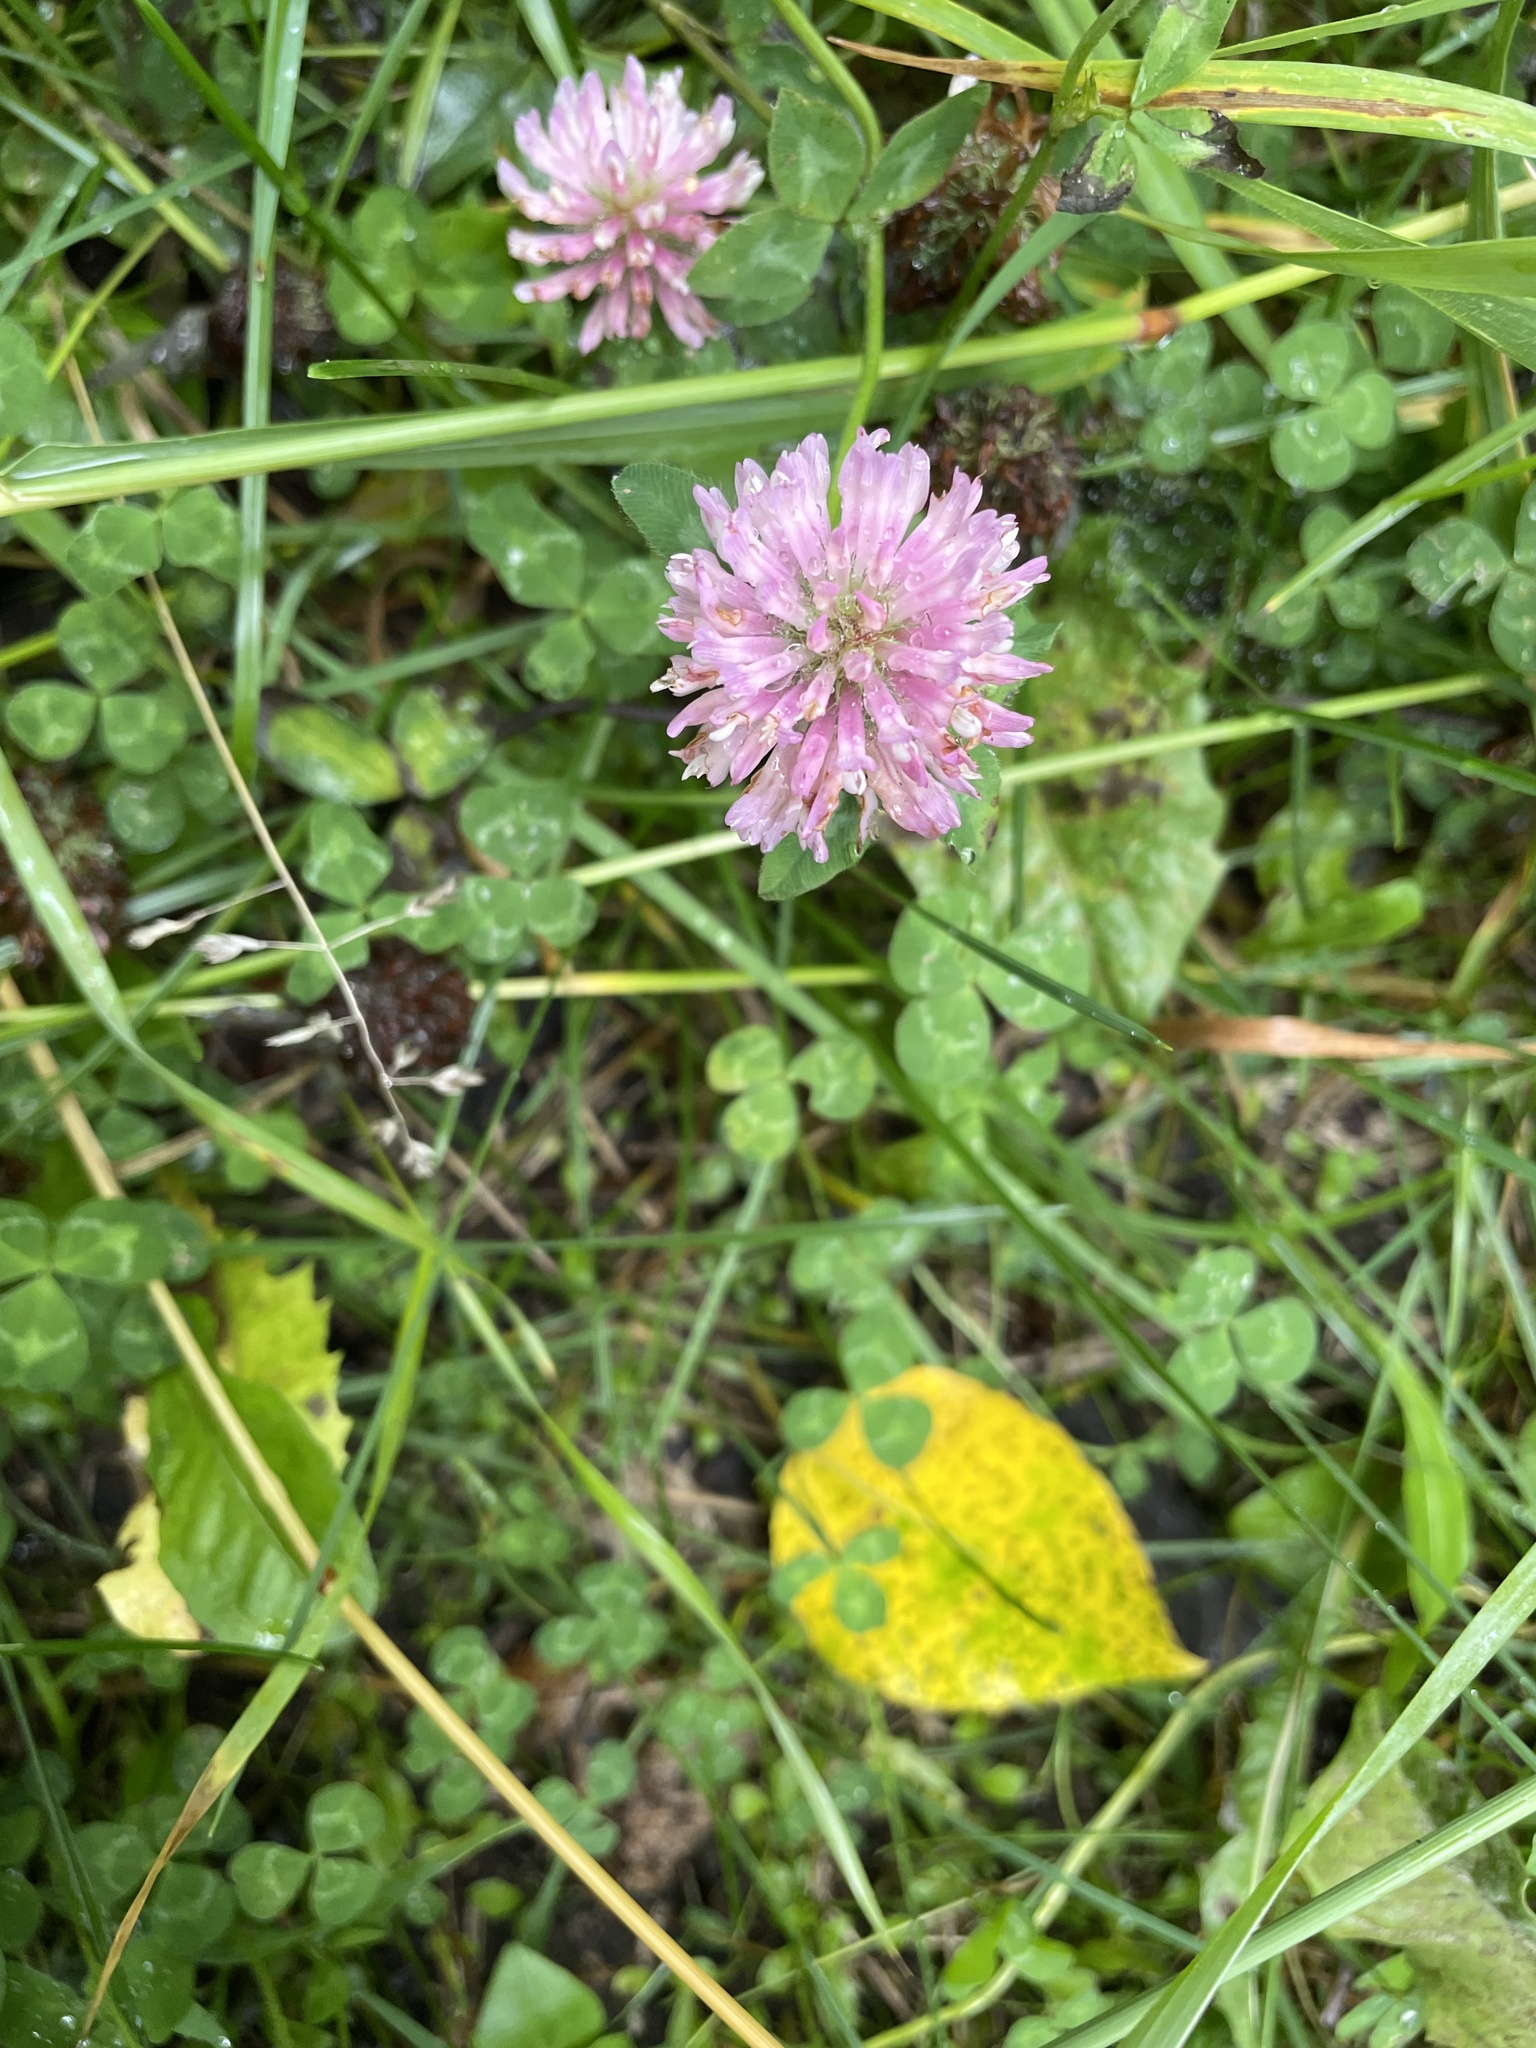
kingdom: Plantae
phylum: Tracheophyta
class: Magnoliopsida
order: Fabales
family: Fabaceae
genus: Trifolium
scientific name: Trifolium pratense
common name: Red clover
